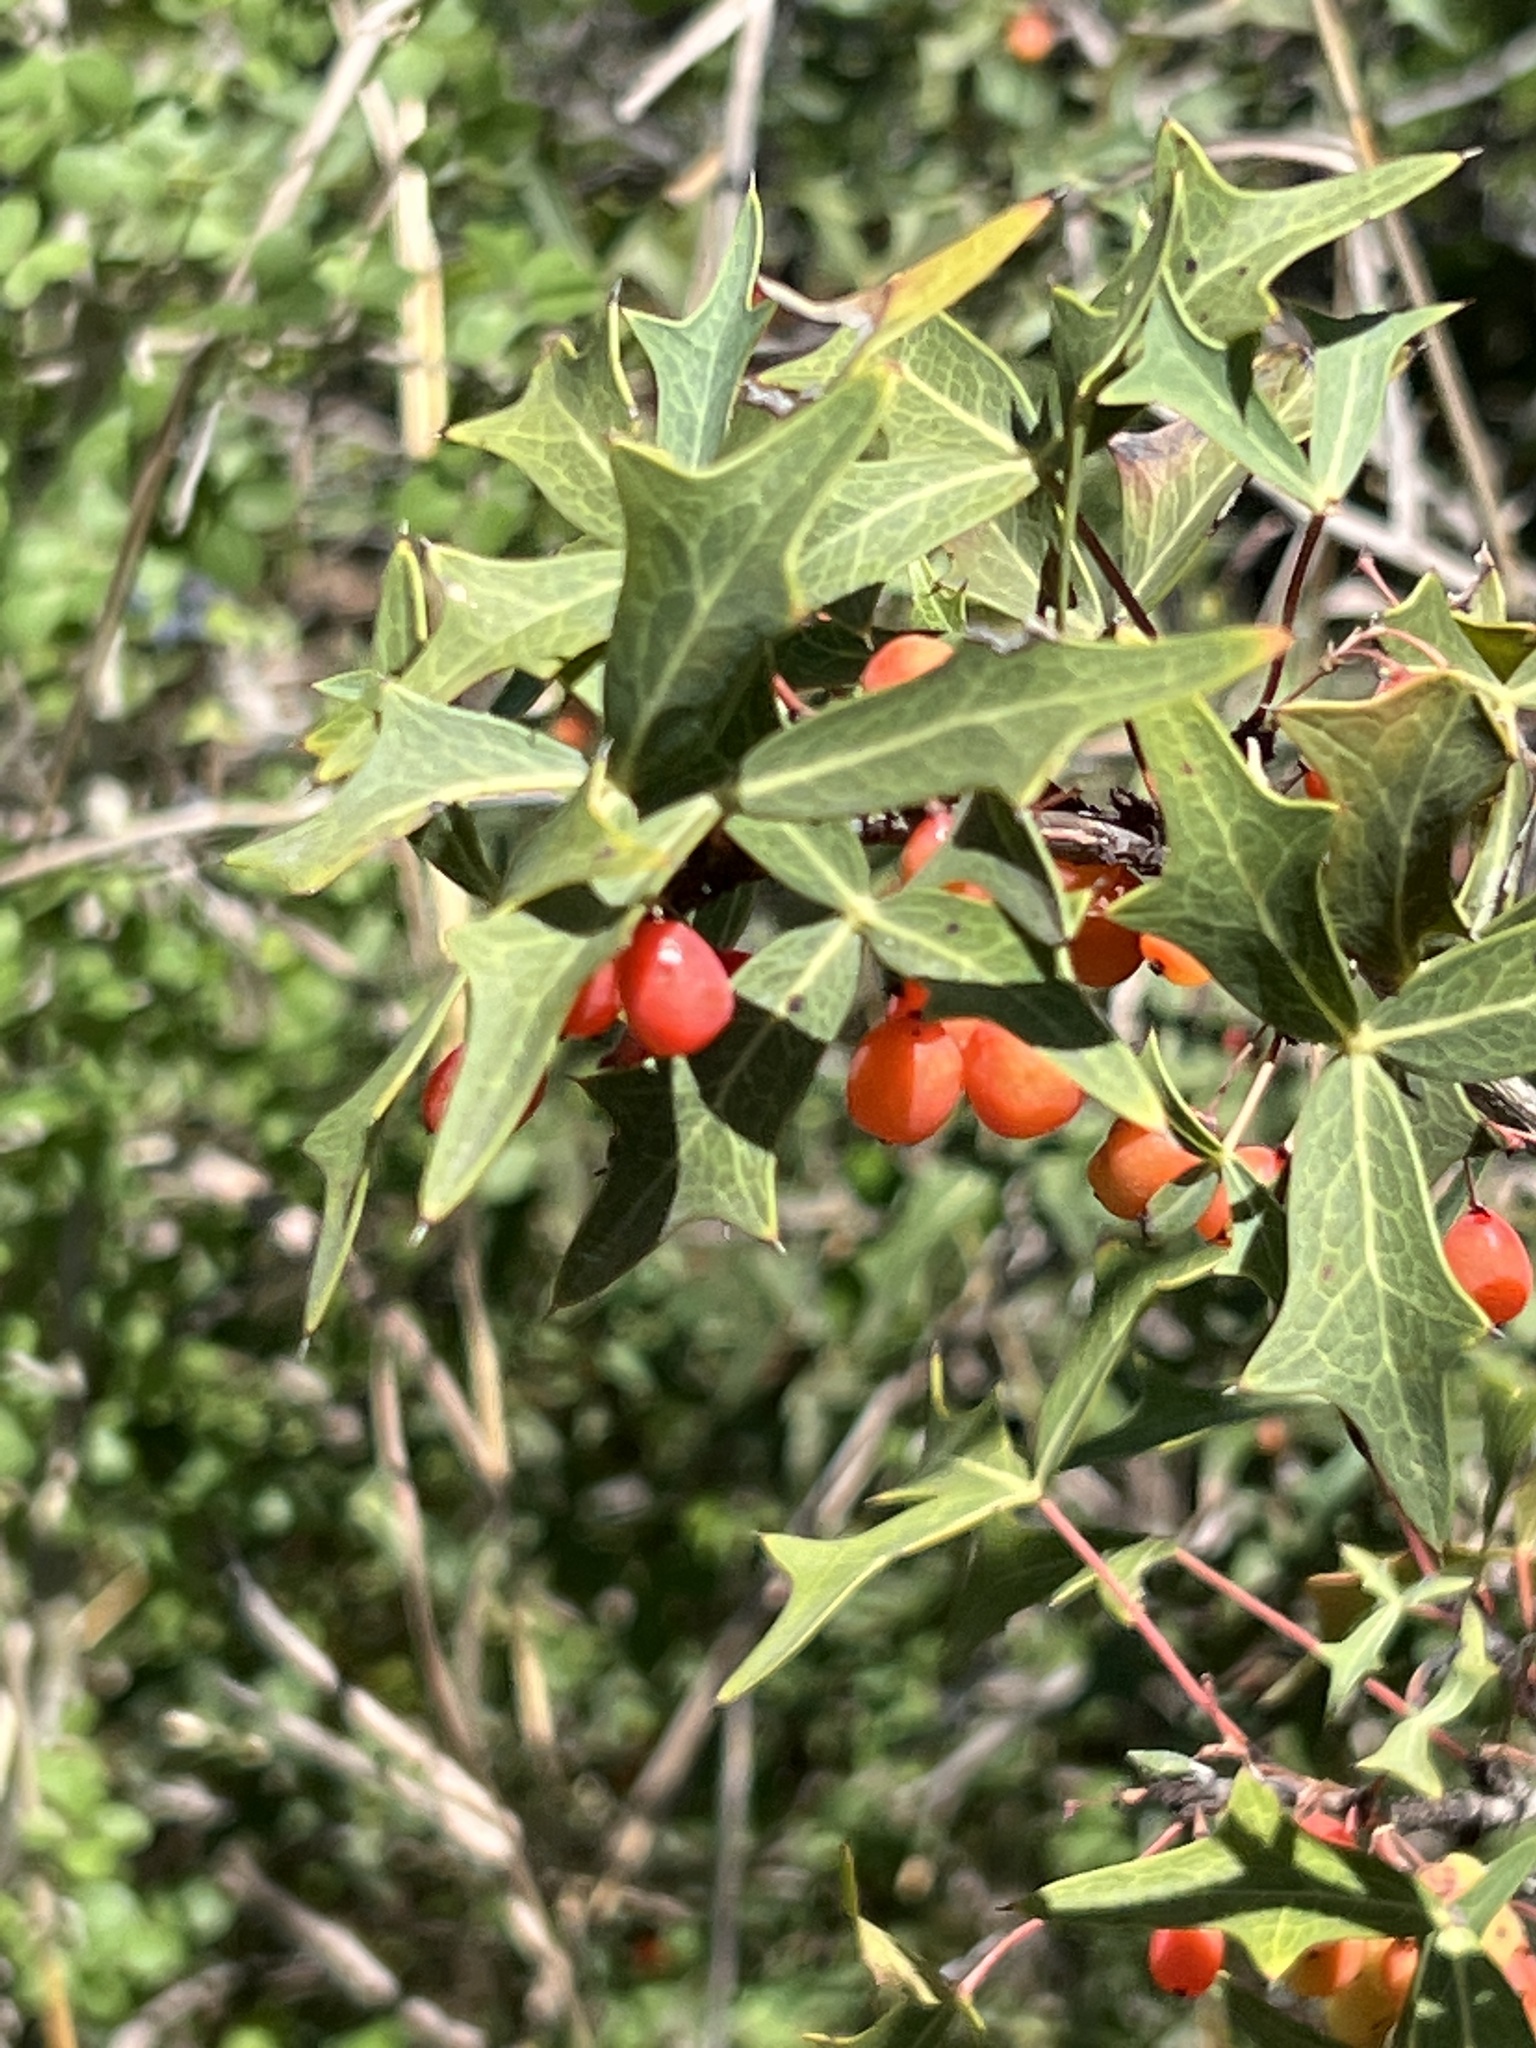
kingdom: Plantae
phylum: Tracheophyta
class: Magnoliopsida
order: Ranunculales
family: Berberidaceae
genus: Alloberberis
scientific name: Alloberberis trifoliolata
